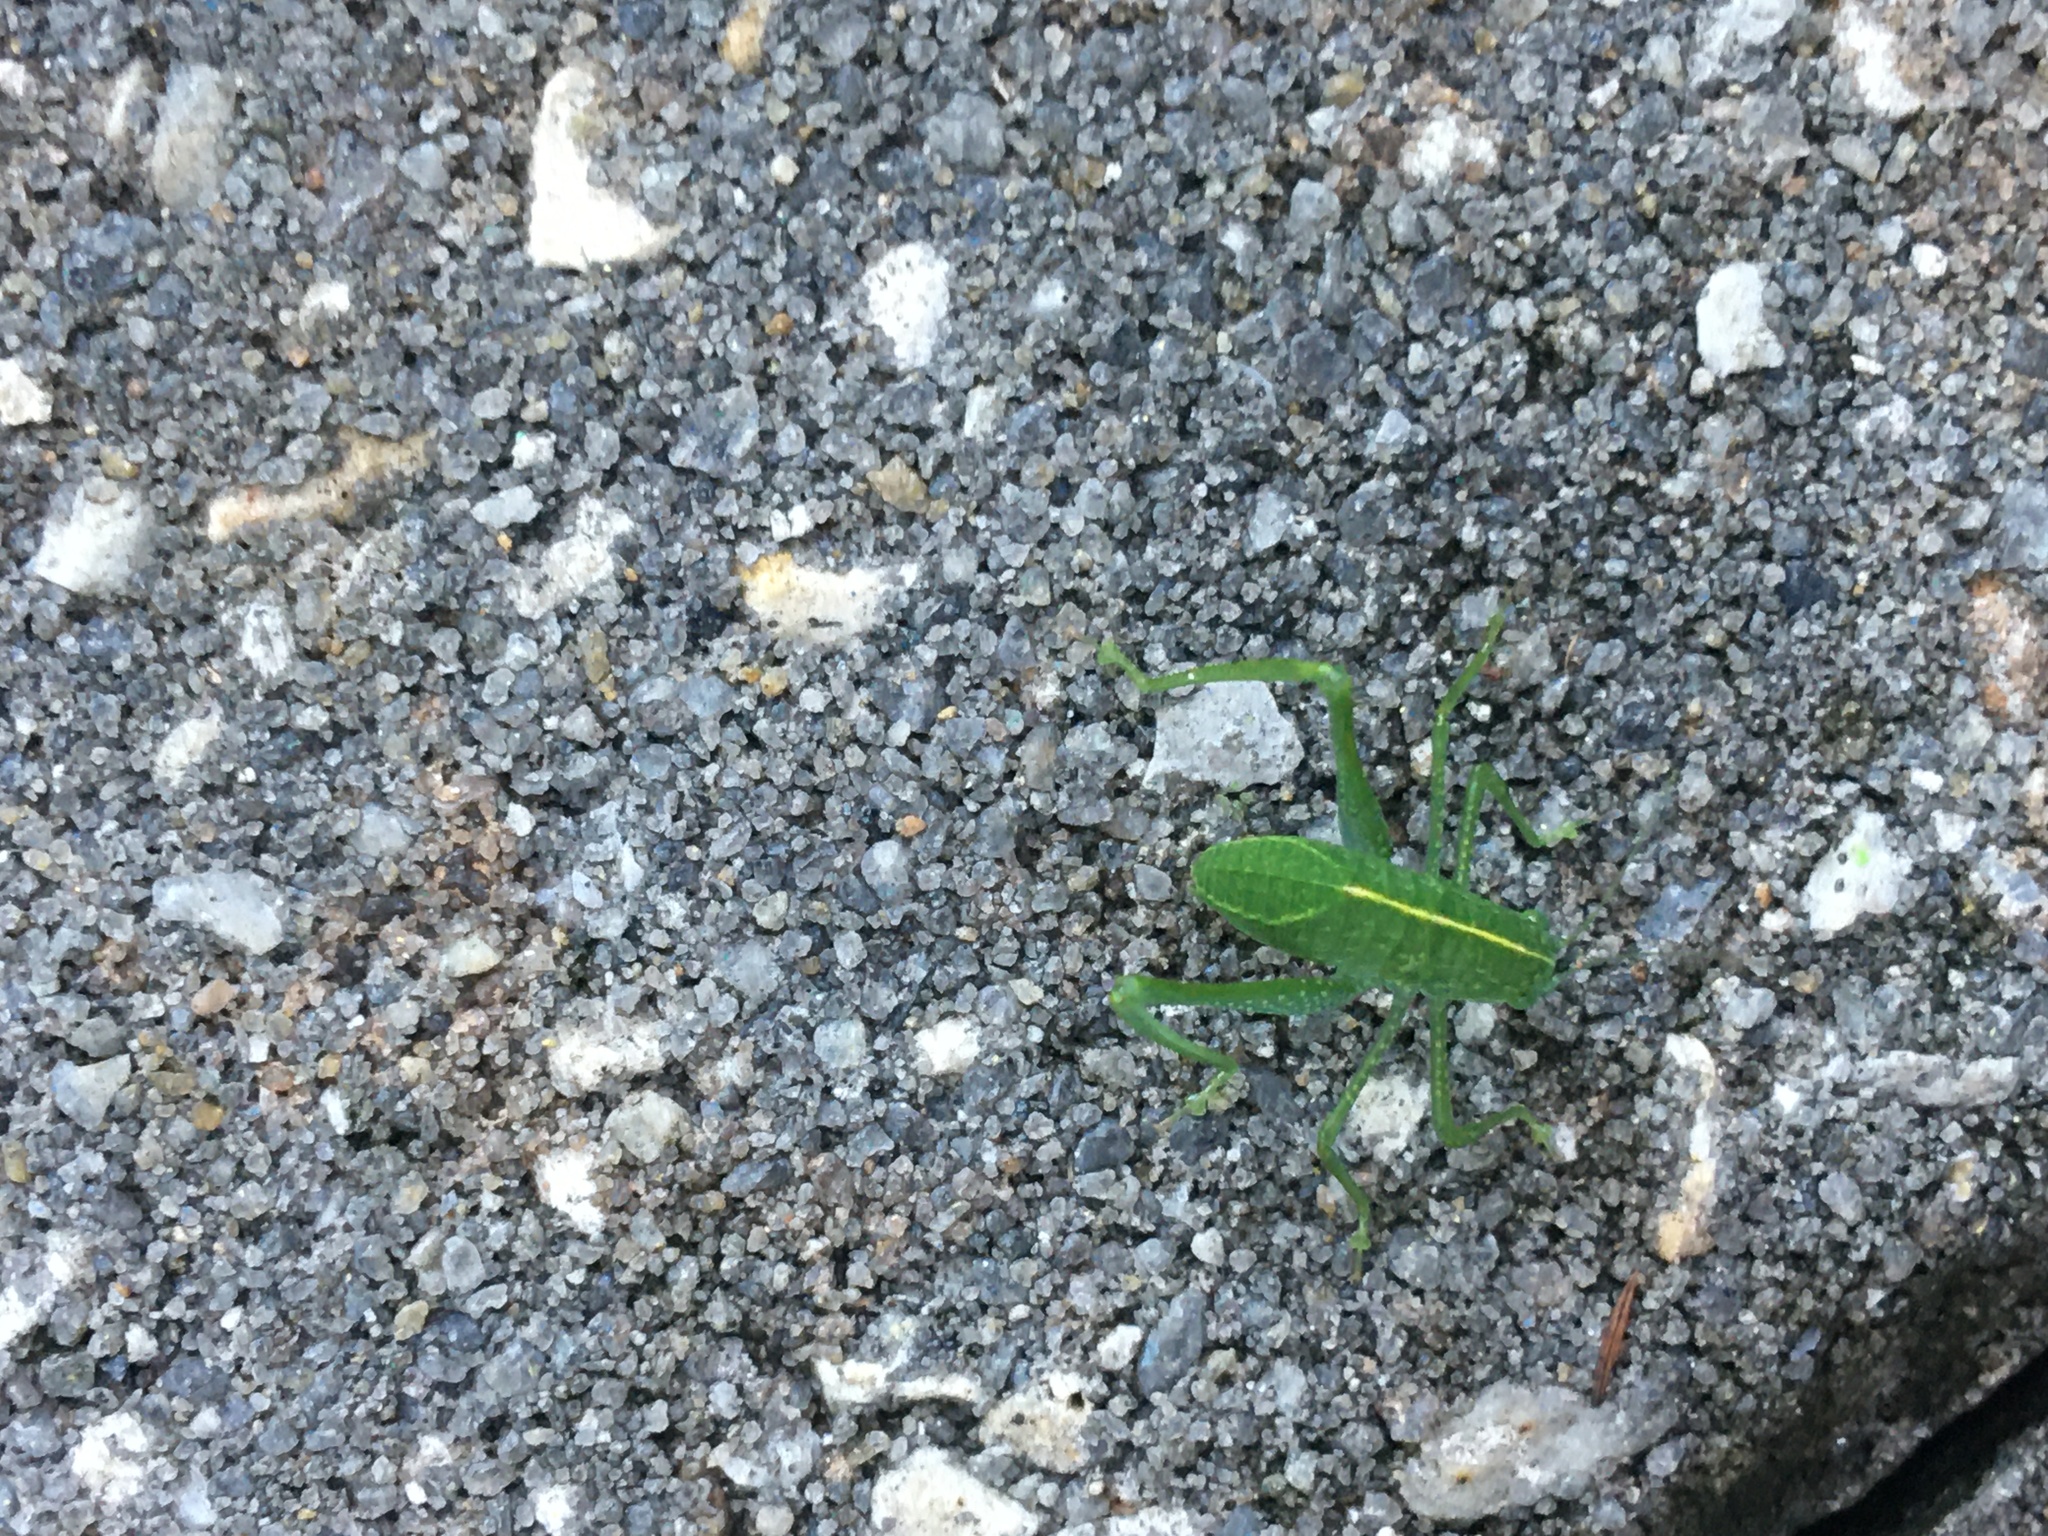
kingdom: Animalia
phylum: Arthropoda
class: Insecta
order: Orthoptera
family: Tettigoniidae
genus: Microcentrum
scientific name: Microcentrum rhombifolium
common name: Broad-winged katydid
